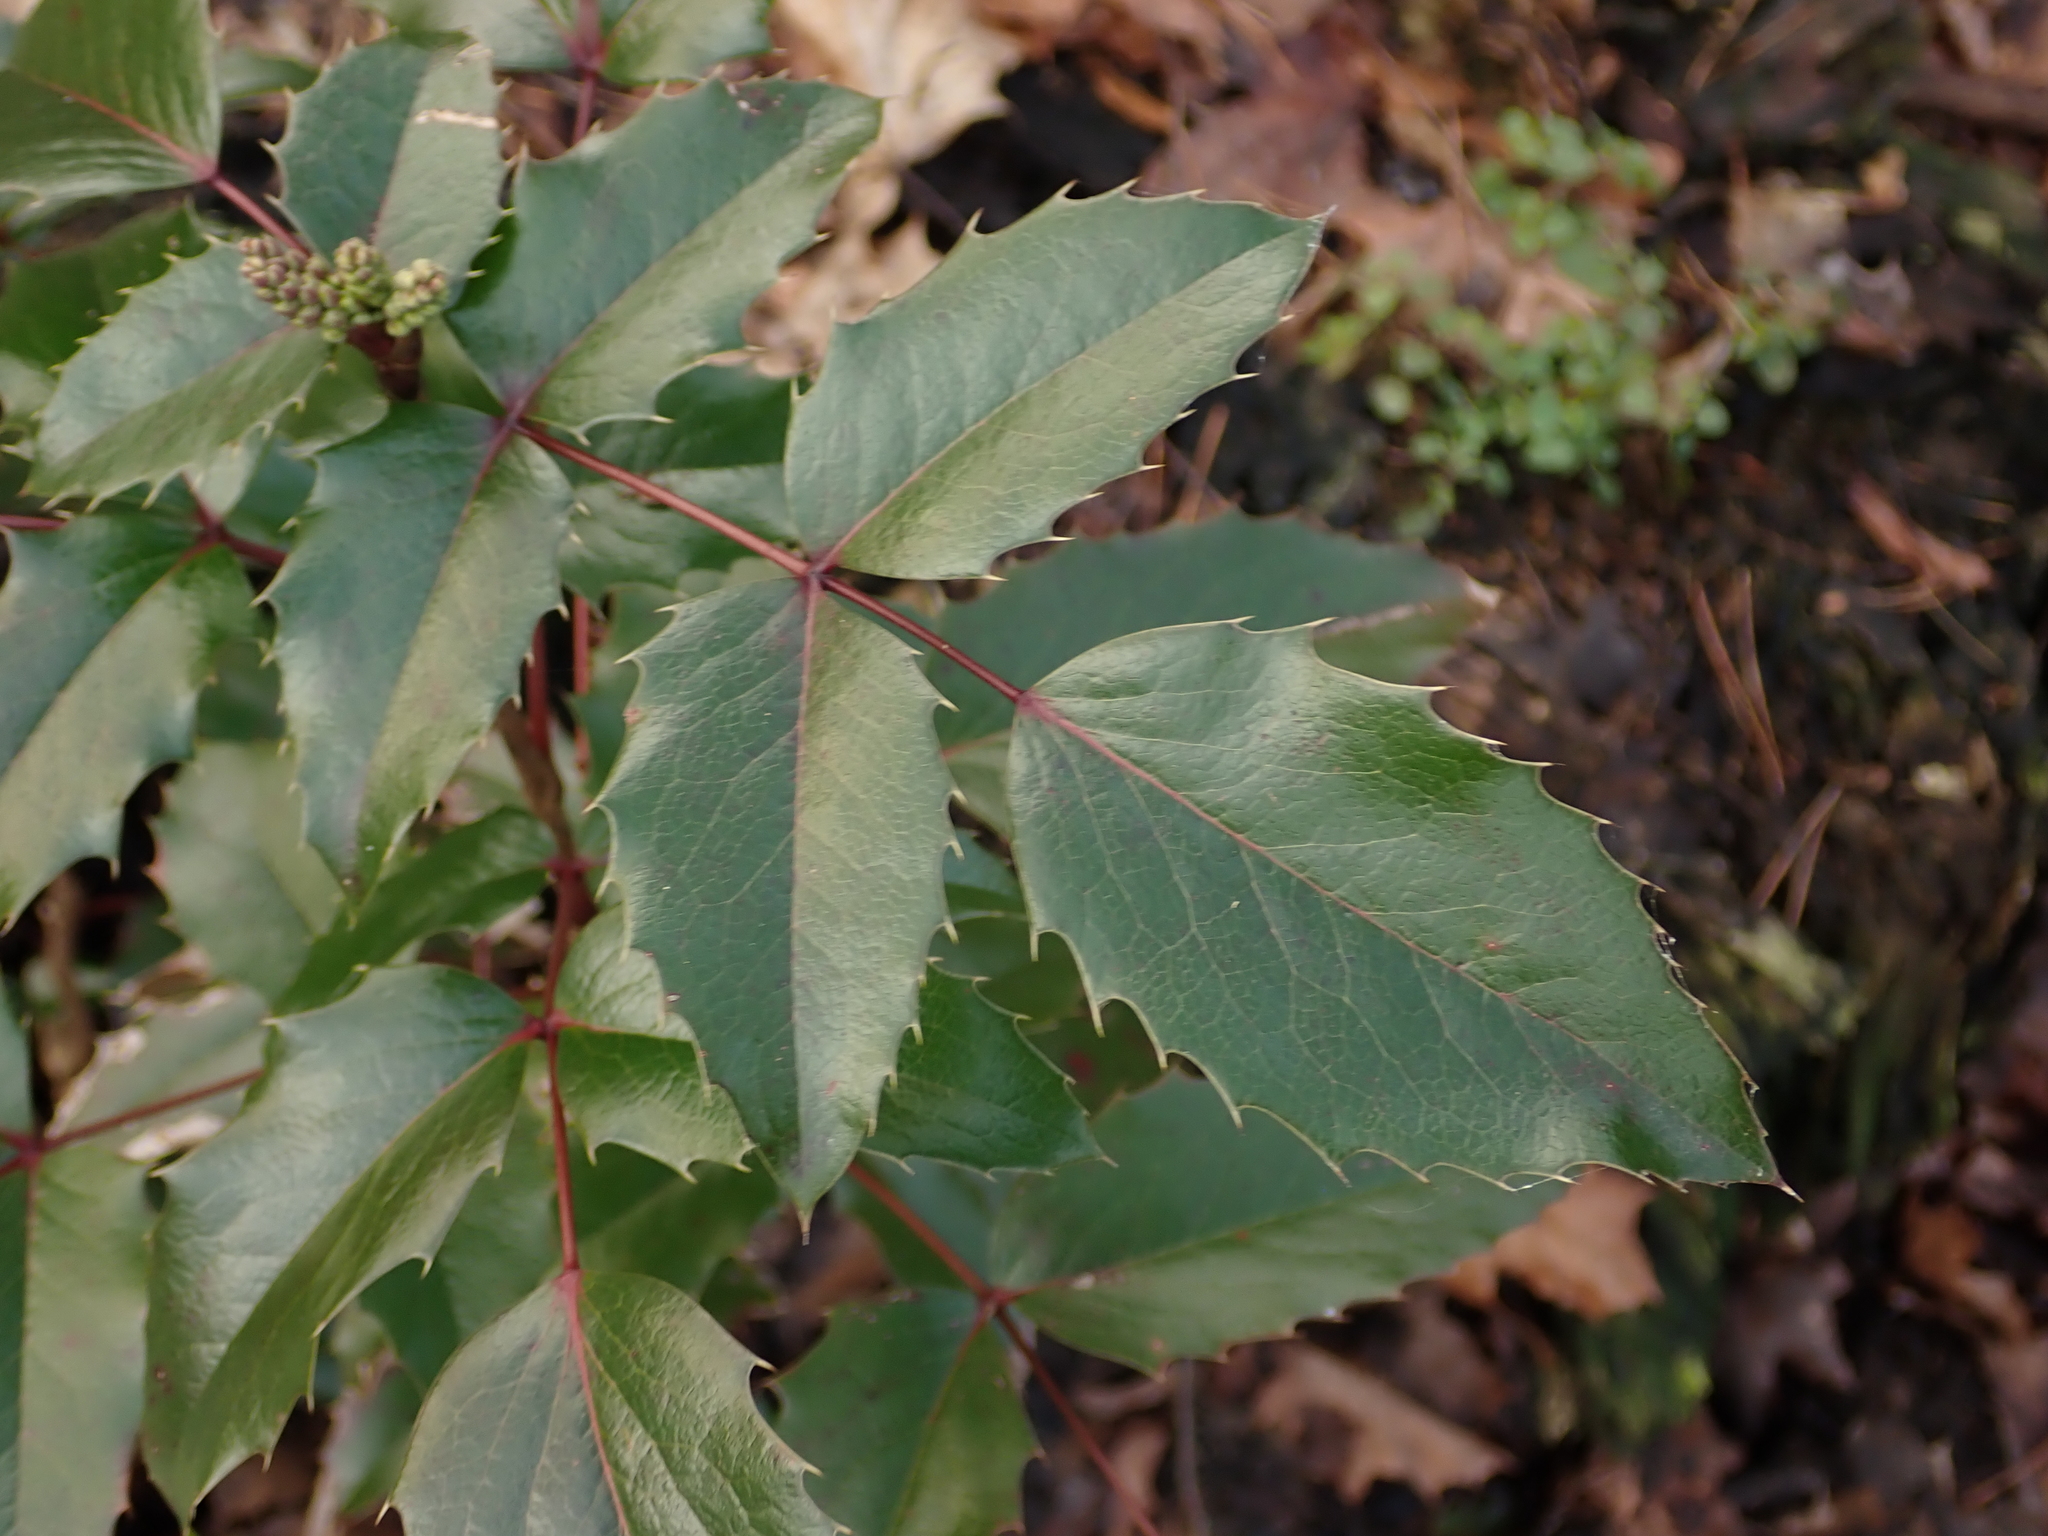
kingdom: Plantae
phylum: Tracheophyta
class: Magnoliopsida
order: Ranunculales
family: Berberidaceae
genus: Mahonia
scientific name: Mahonia aquifolium
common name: Oregon-grape
